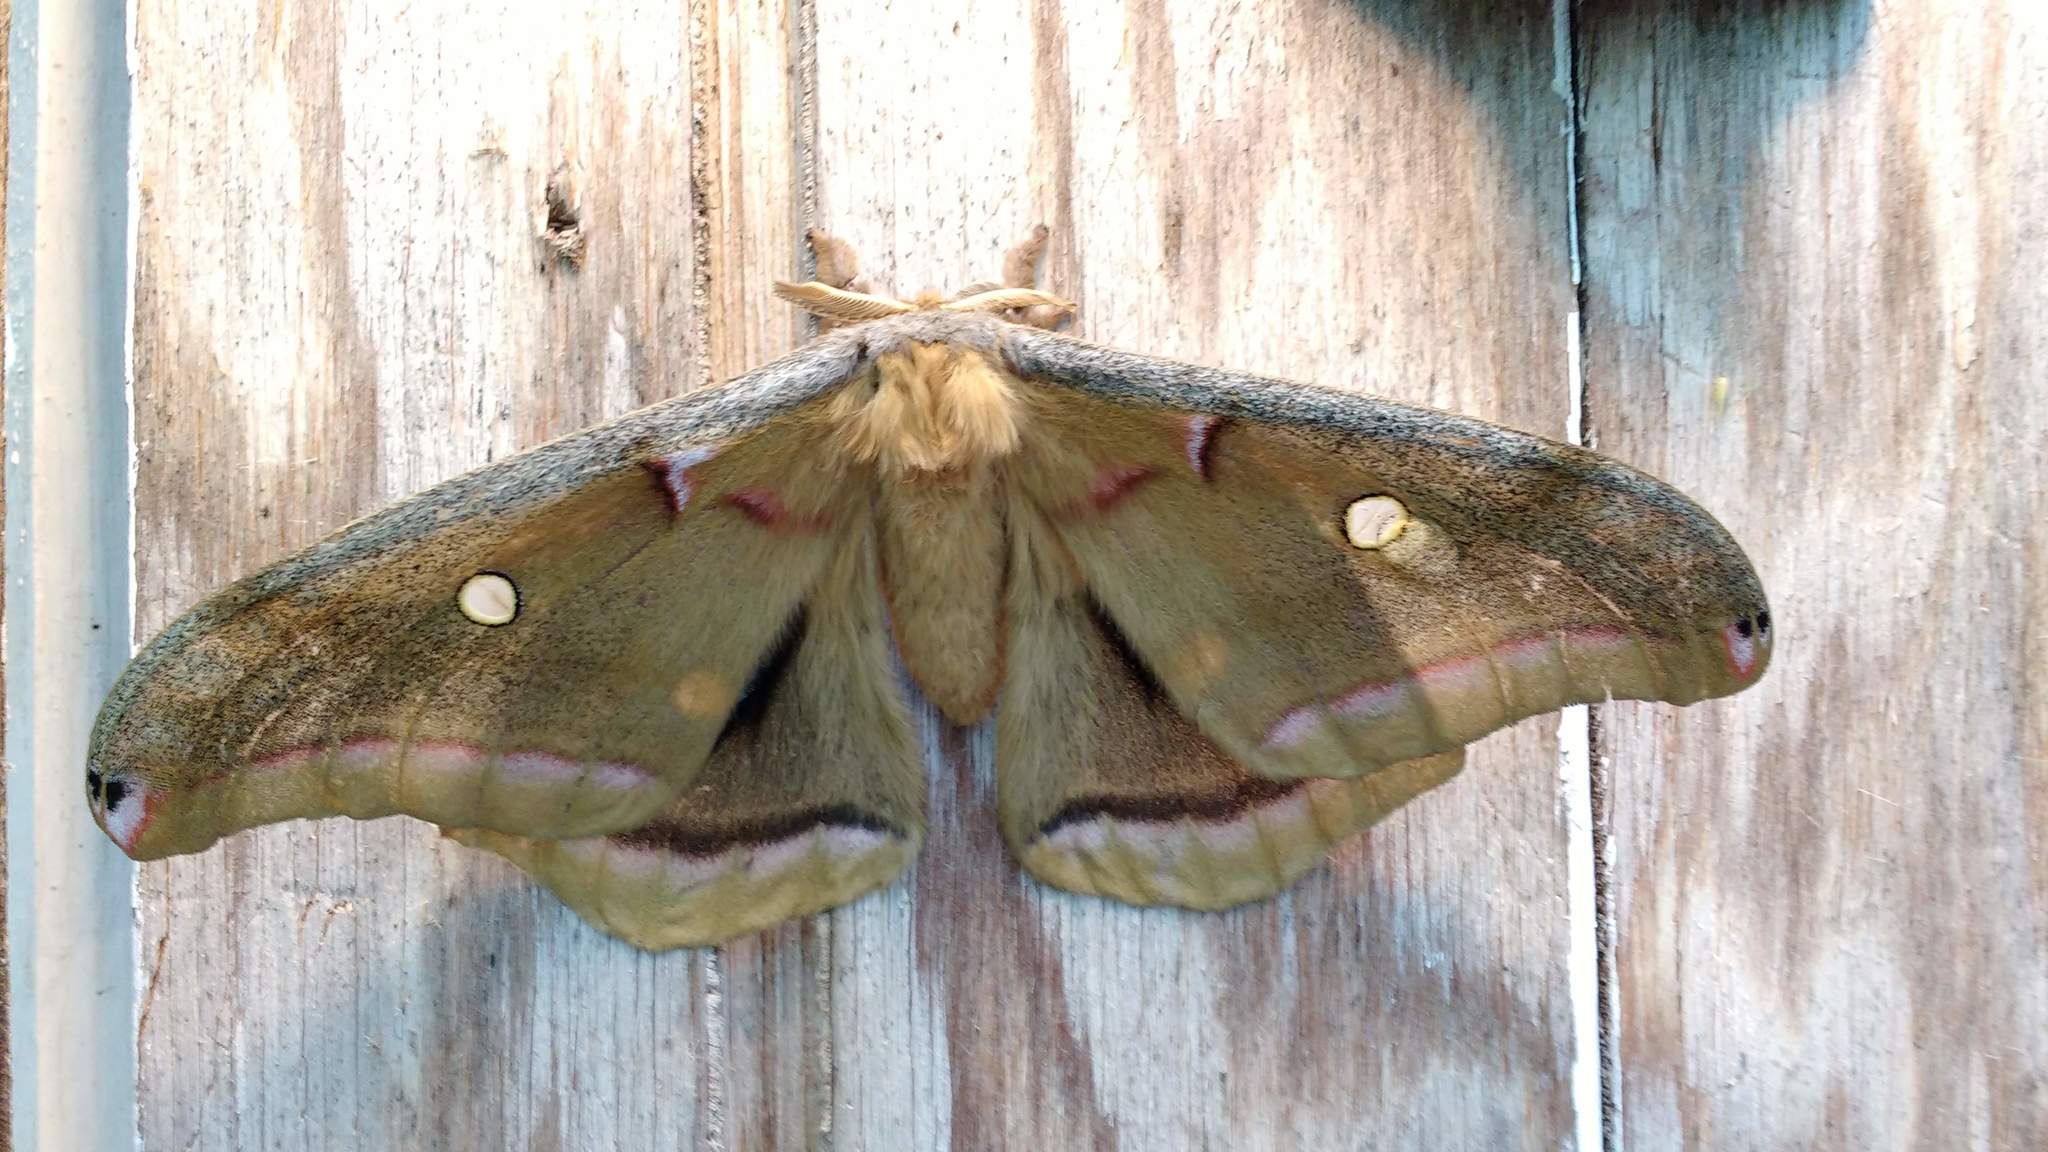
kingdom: Animalia
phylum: Arthropoda
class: Insecta
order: Lepidoptera
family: Saturniidae
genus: Antheraea
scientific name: Antheraea polyphemus
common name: Polyphemus moth
